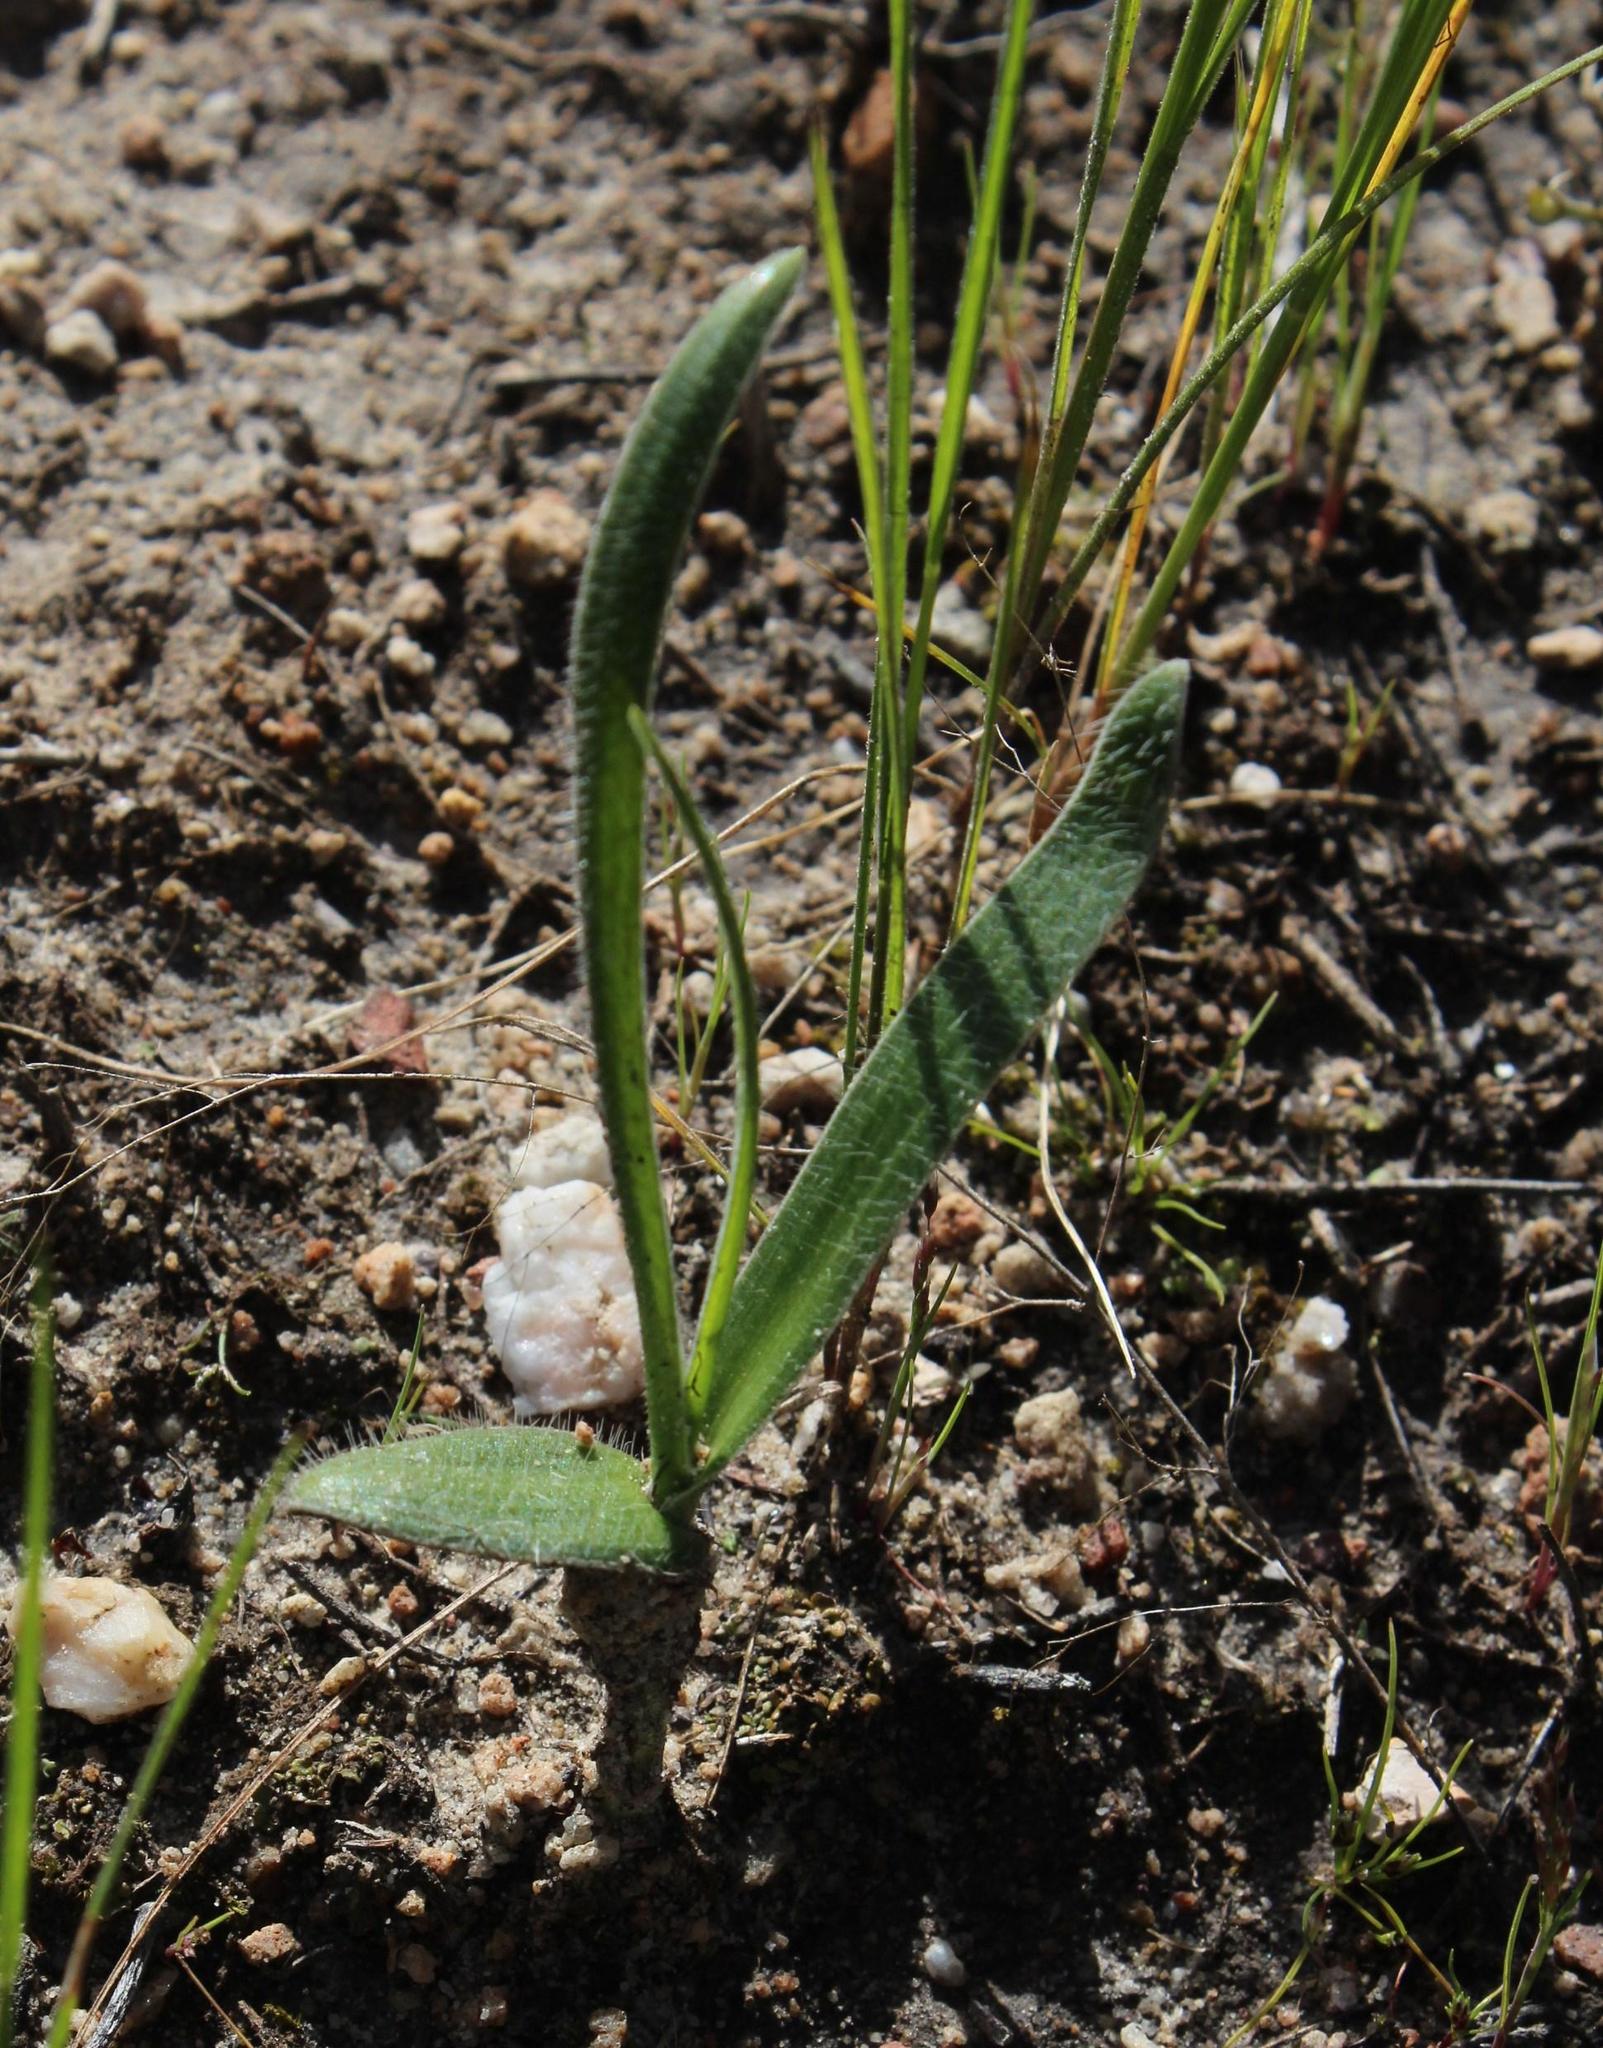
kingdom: Plantae
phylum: Tracheophyta
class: Liliopsida
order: Asparagales
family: Asparagaceae
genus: Ornithogalum
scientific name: Ornithogalum hispidum
